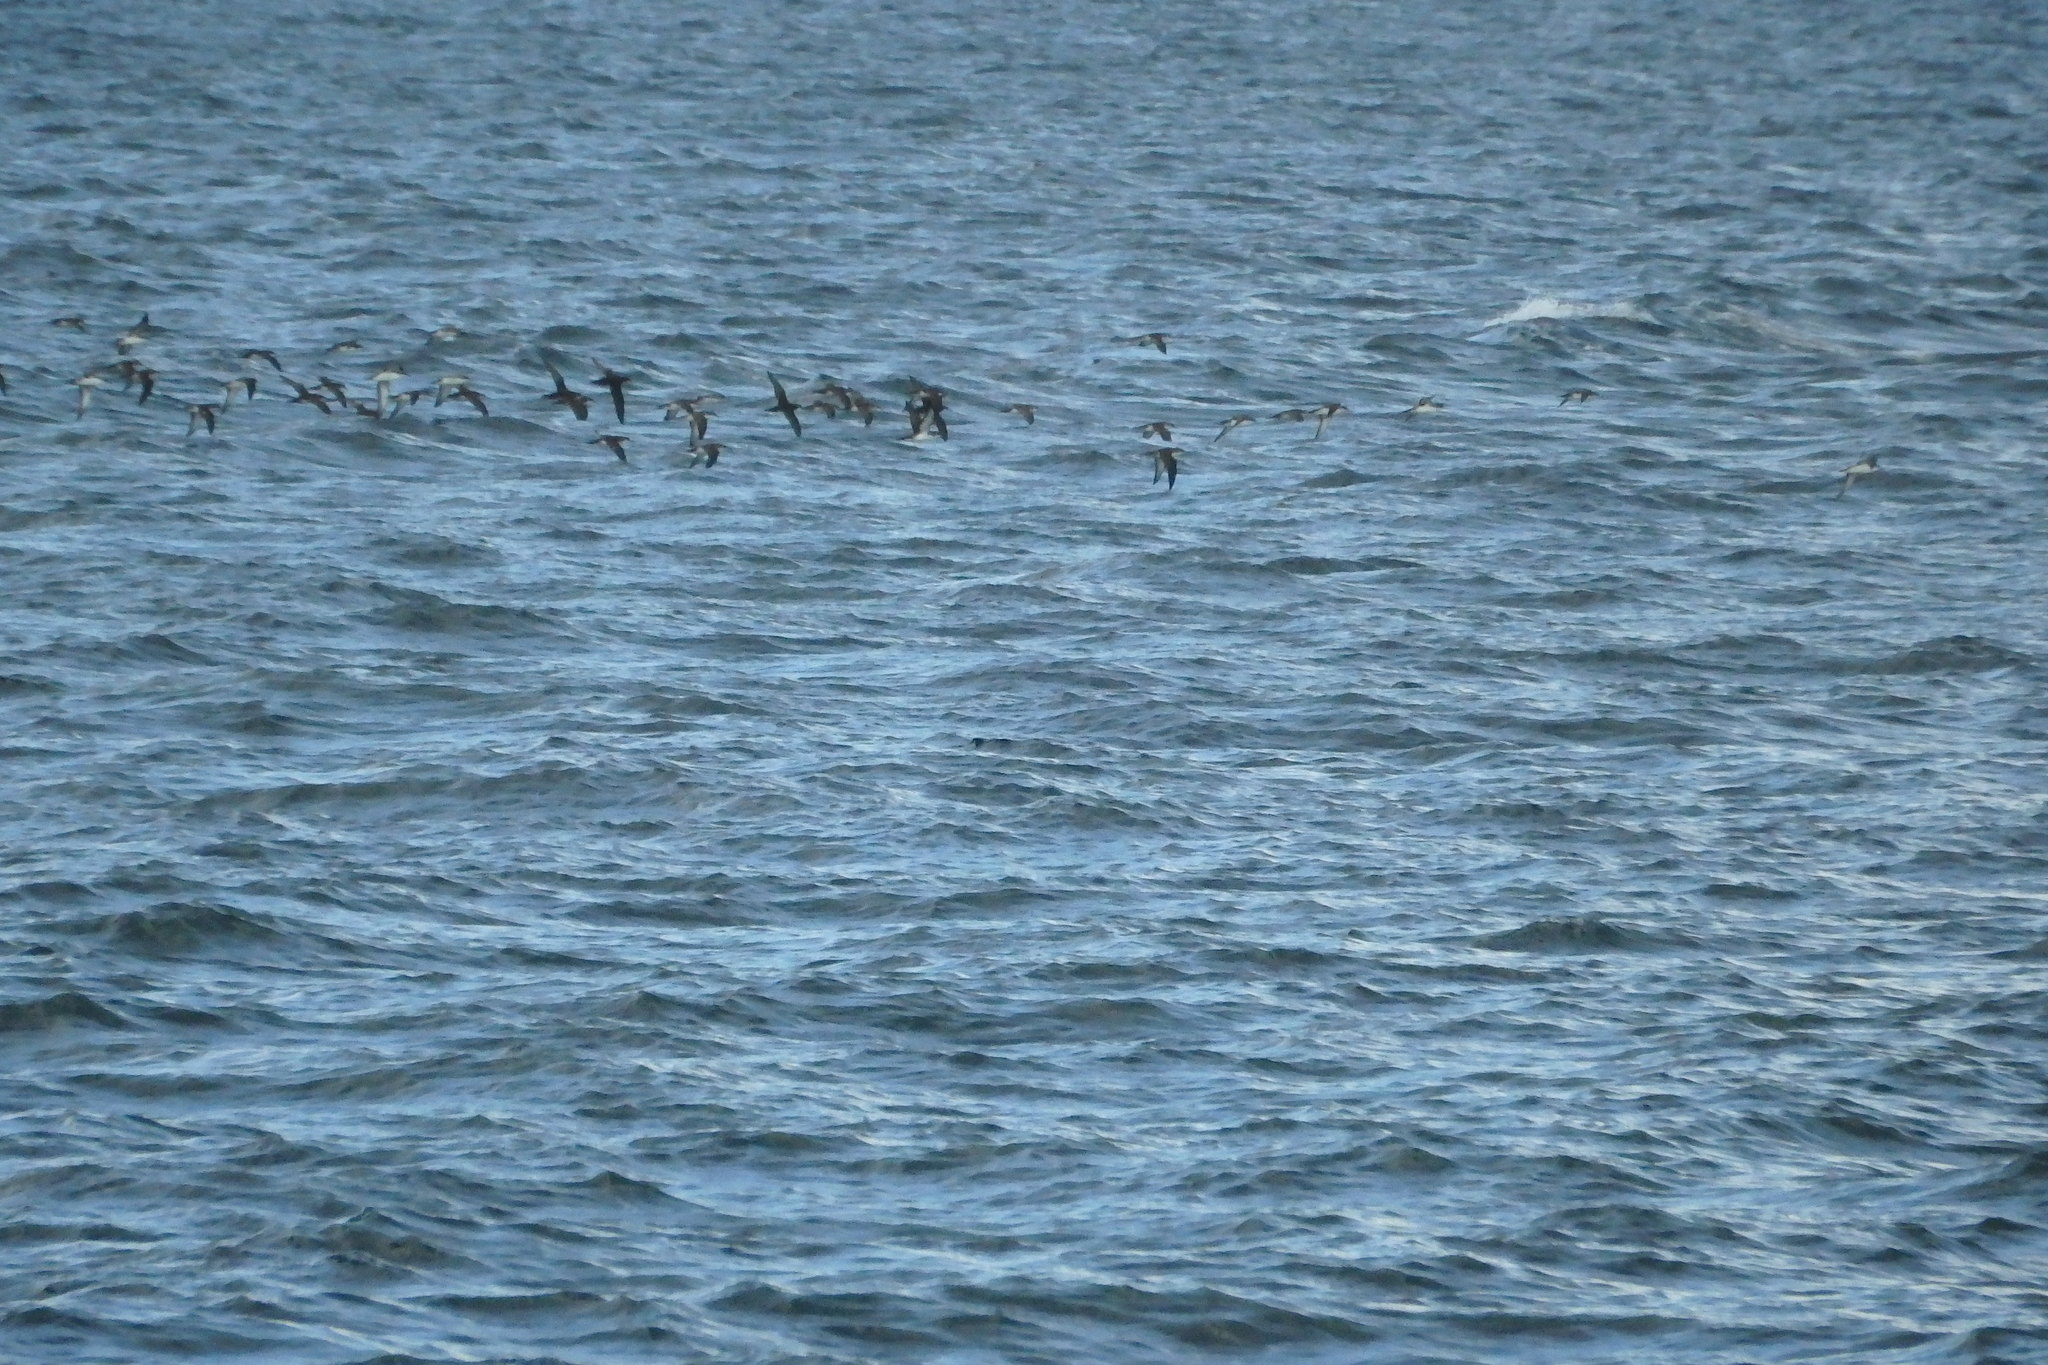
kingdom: Animalia
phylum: Chordata
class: Aves
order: Procellariiformes
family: Procellariidae
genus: Puffinus
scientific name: Puffinus yelkouan
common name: Yelkouan shearwater
